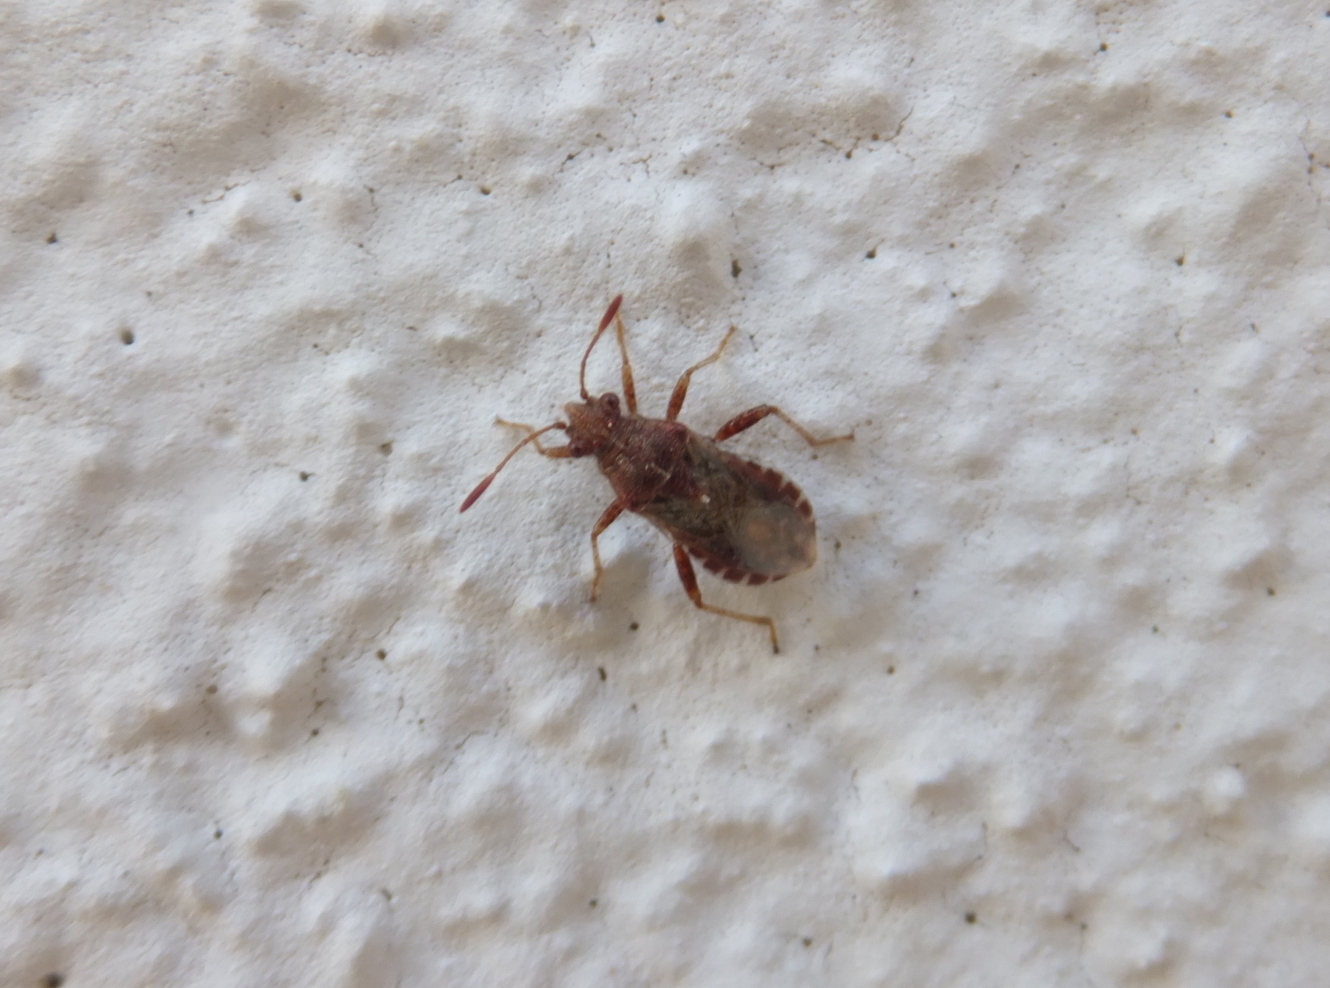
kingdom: Animalia
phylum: Arthropoda
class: Insecta
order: Hemiptera
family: Rhopalidae
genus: Rhopalus
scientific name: Rhopalus conspersus
